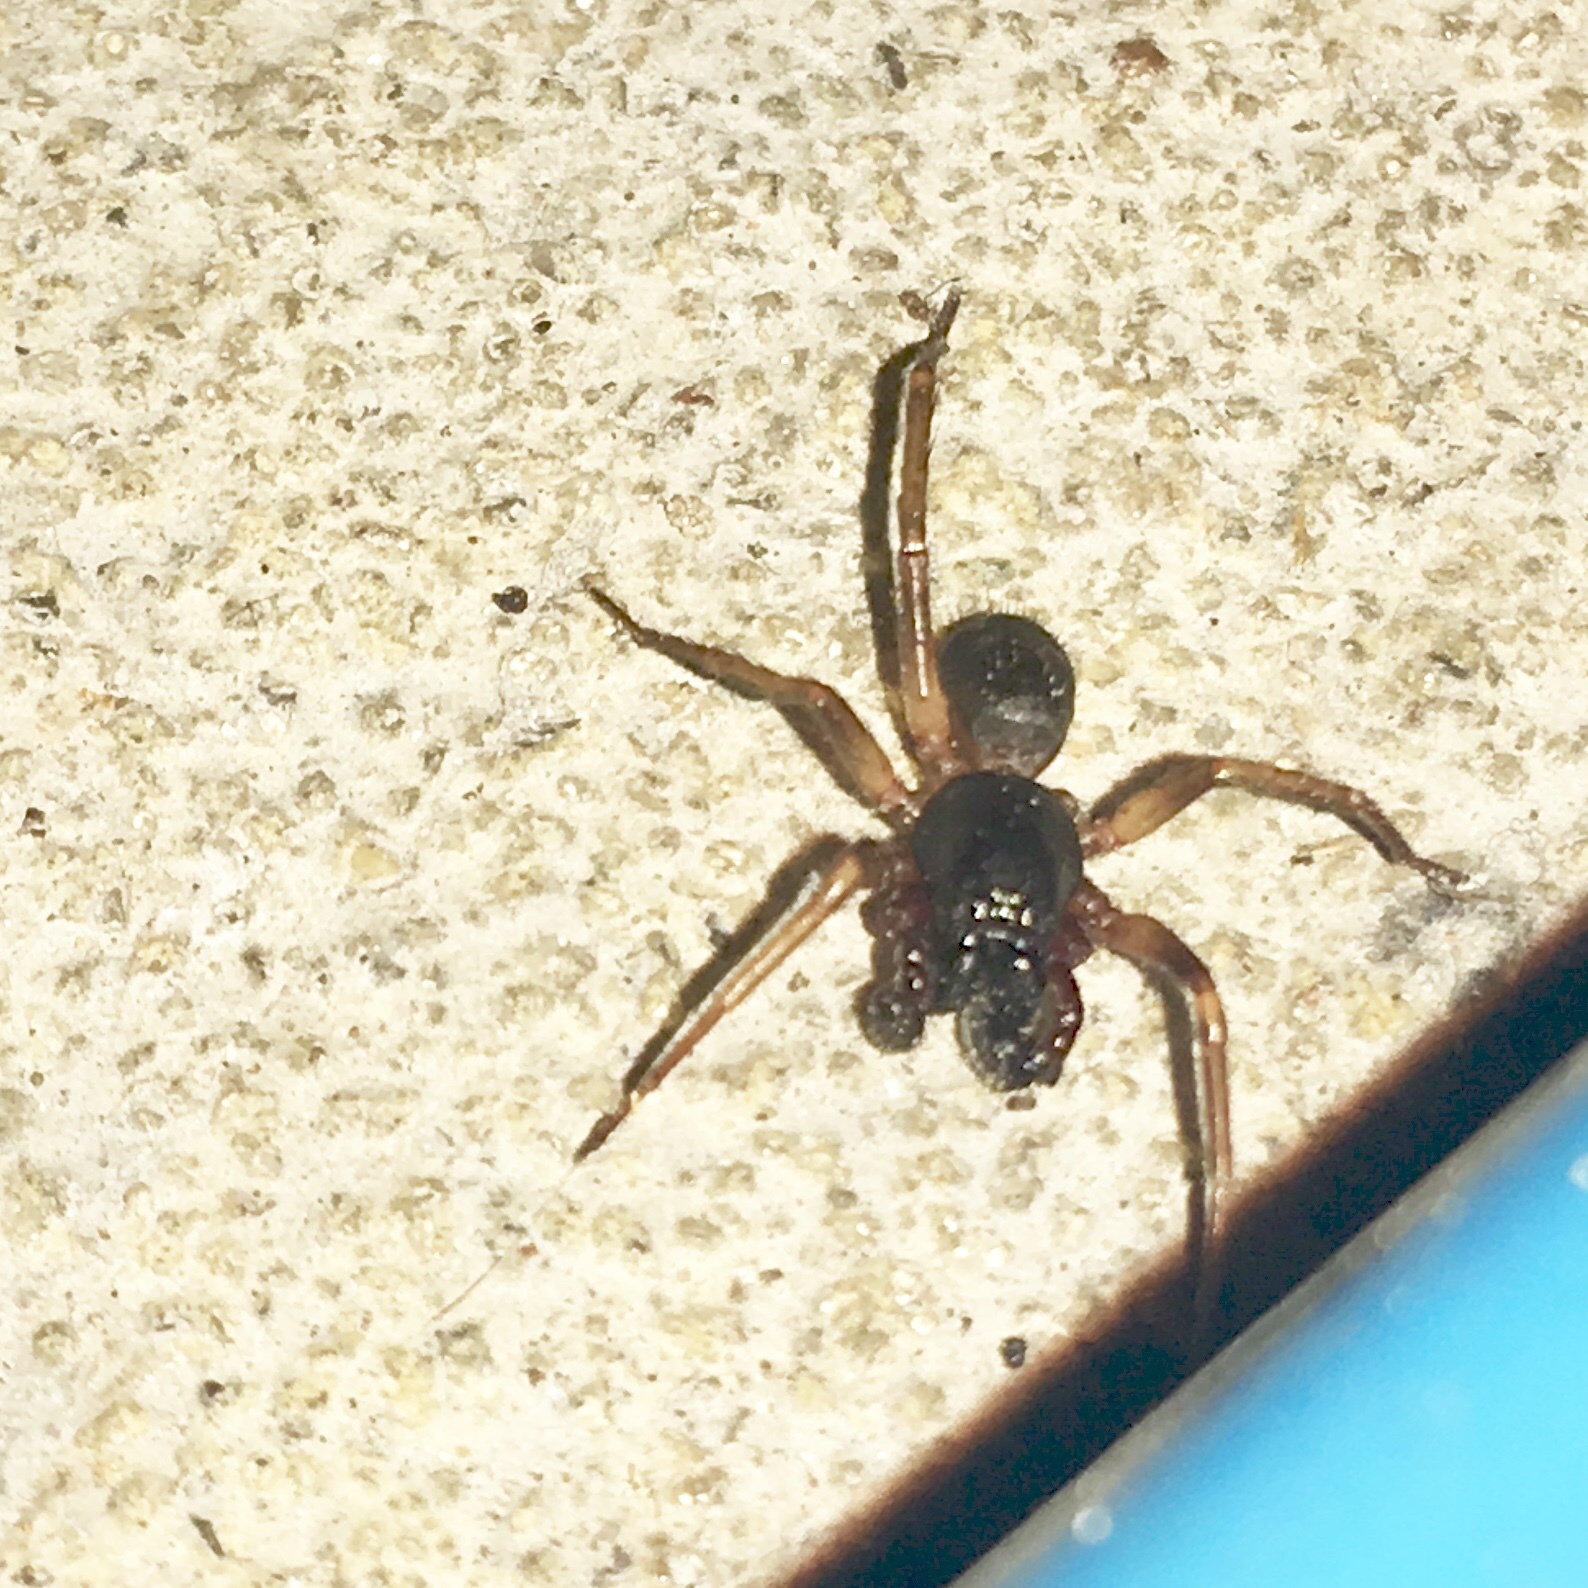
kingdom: Animalia
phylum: Arthropoda
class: Arachnida
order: Araneae
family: Corinnidae
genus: Falconina
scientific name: Falconina gracilis
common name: Antmimic spider
